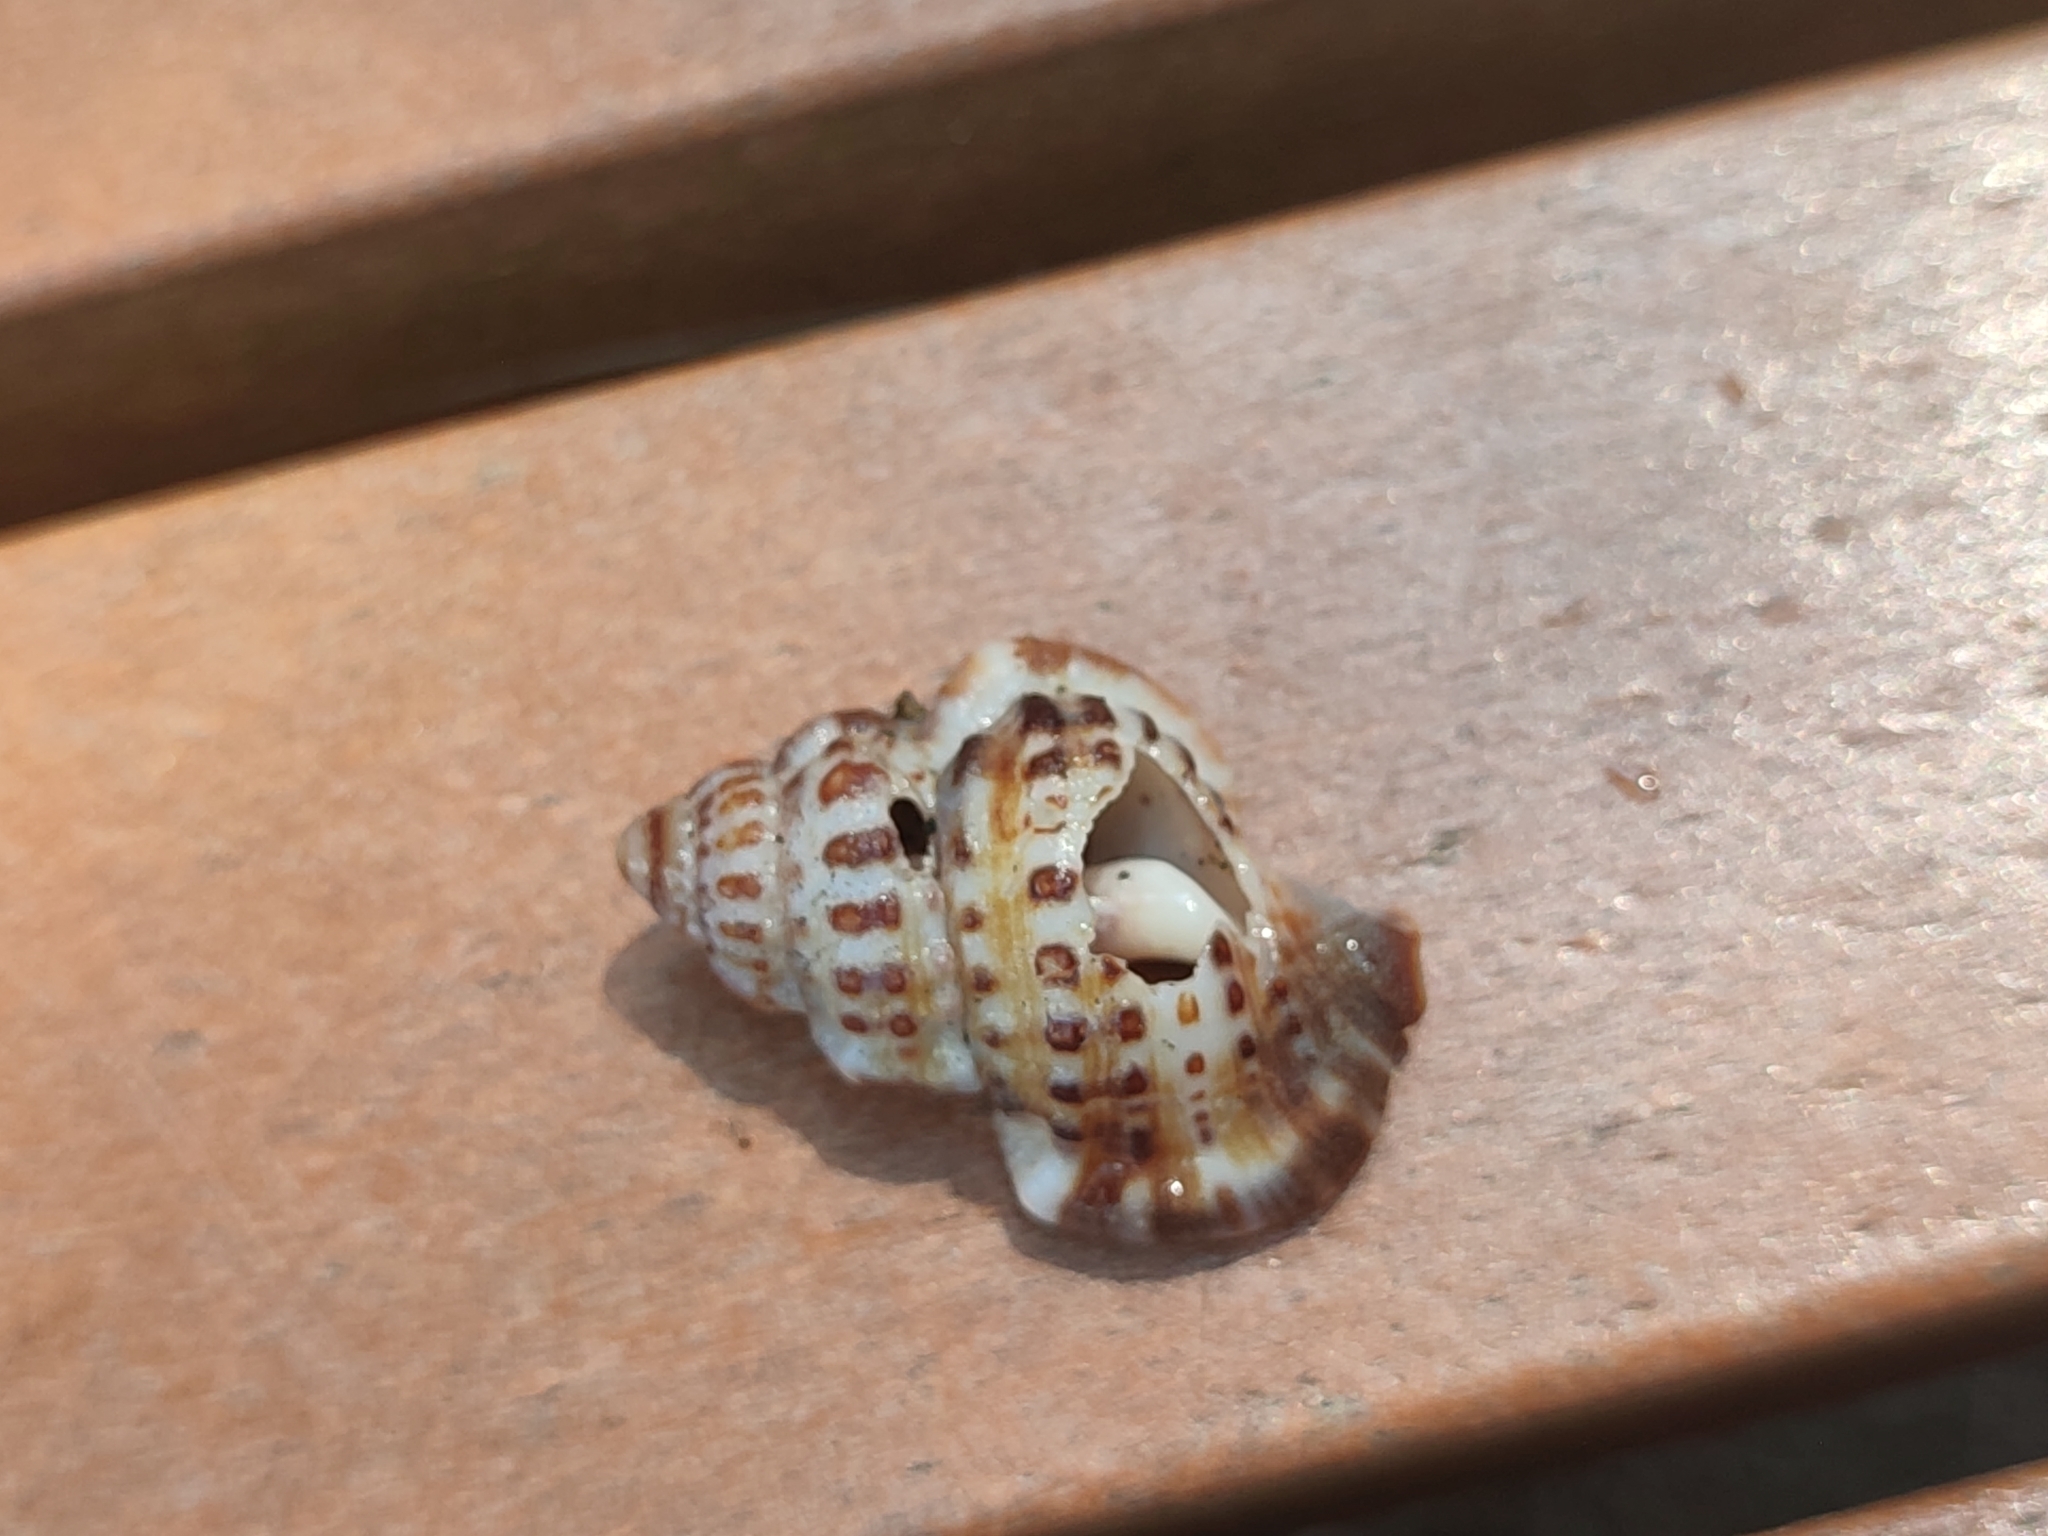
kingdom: Animalia
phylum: Mollusca
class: Gastropoda
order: Littorinimorpha
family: Cymatiidae
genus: Gyrineum
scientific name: Gyrineum natator
